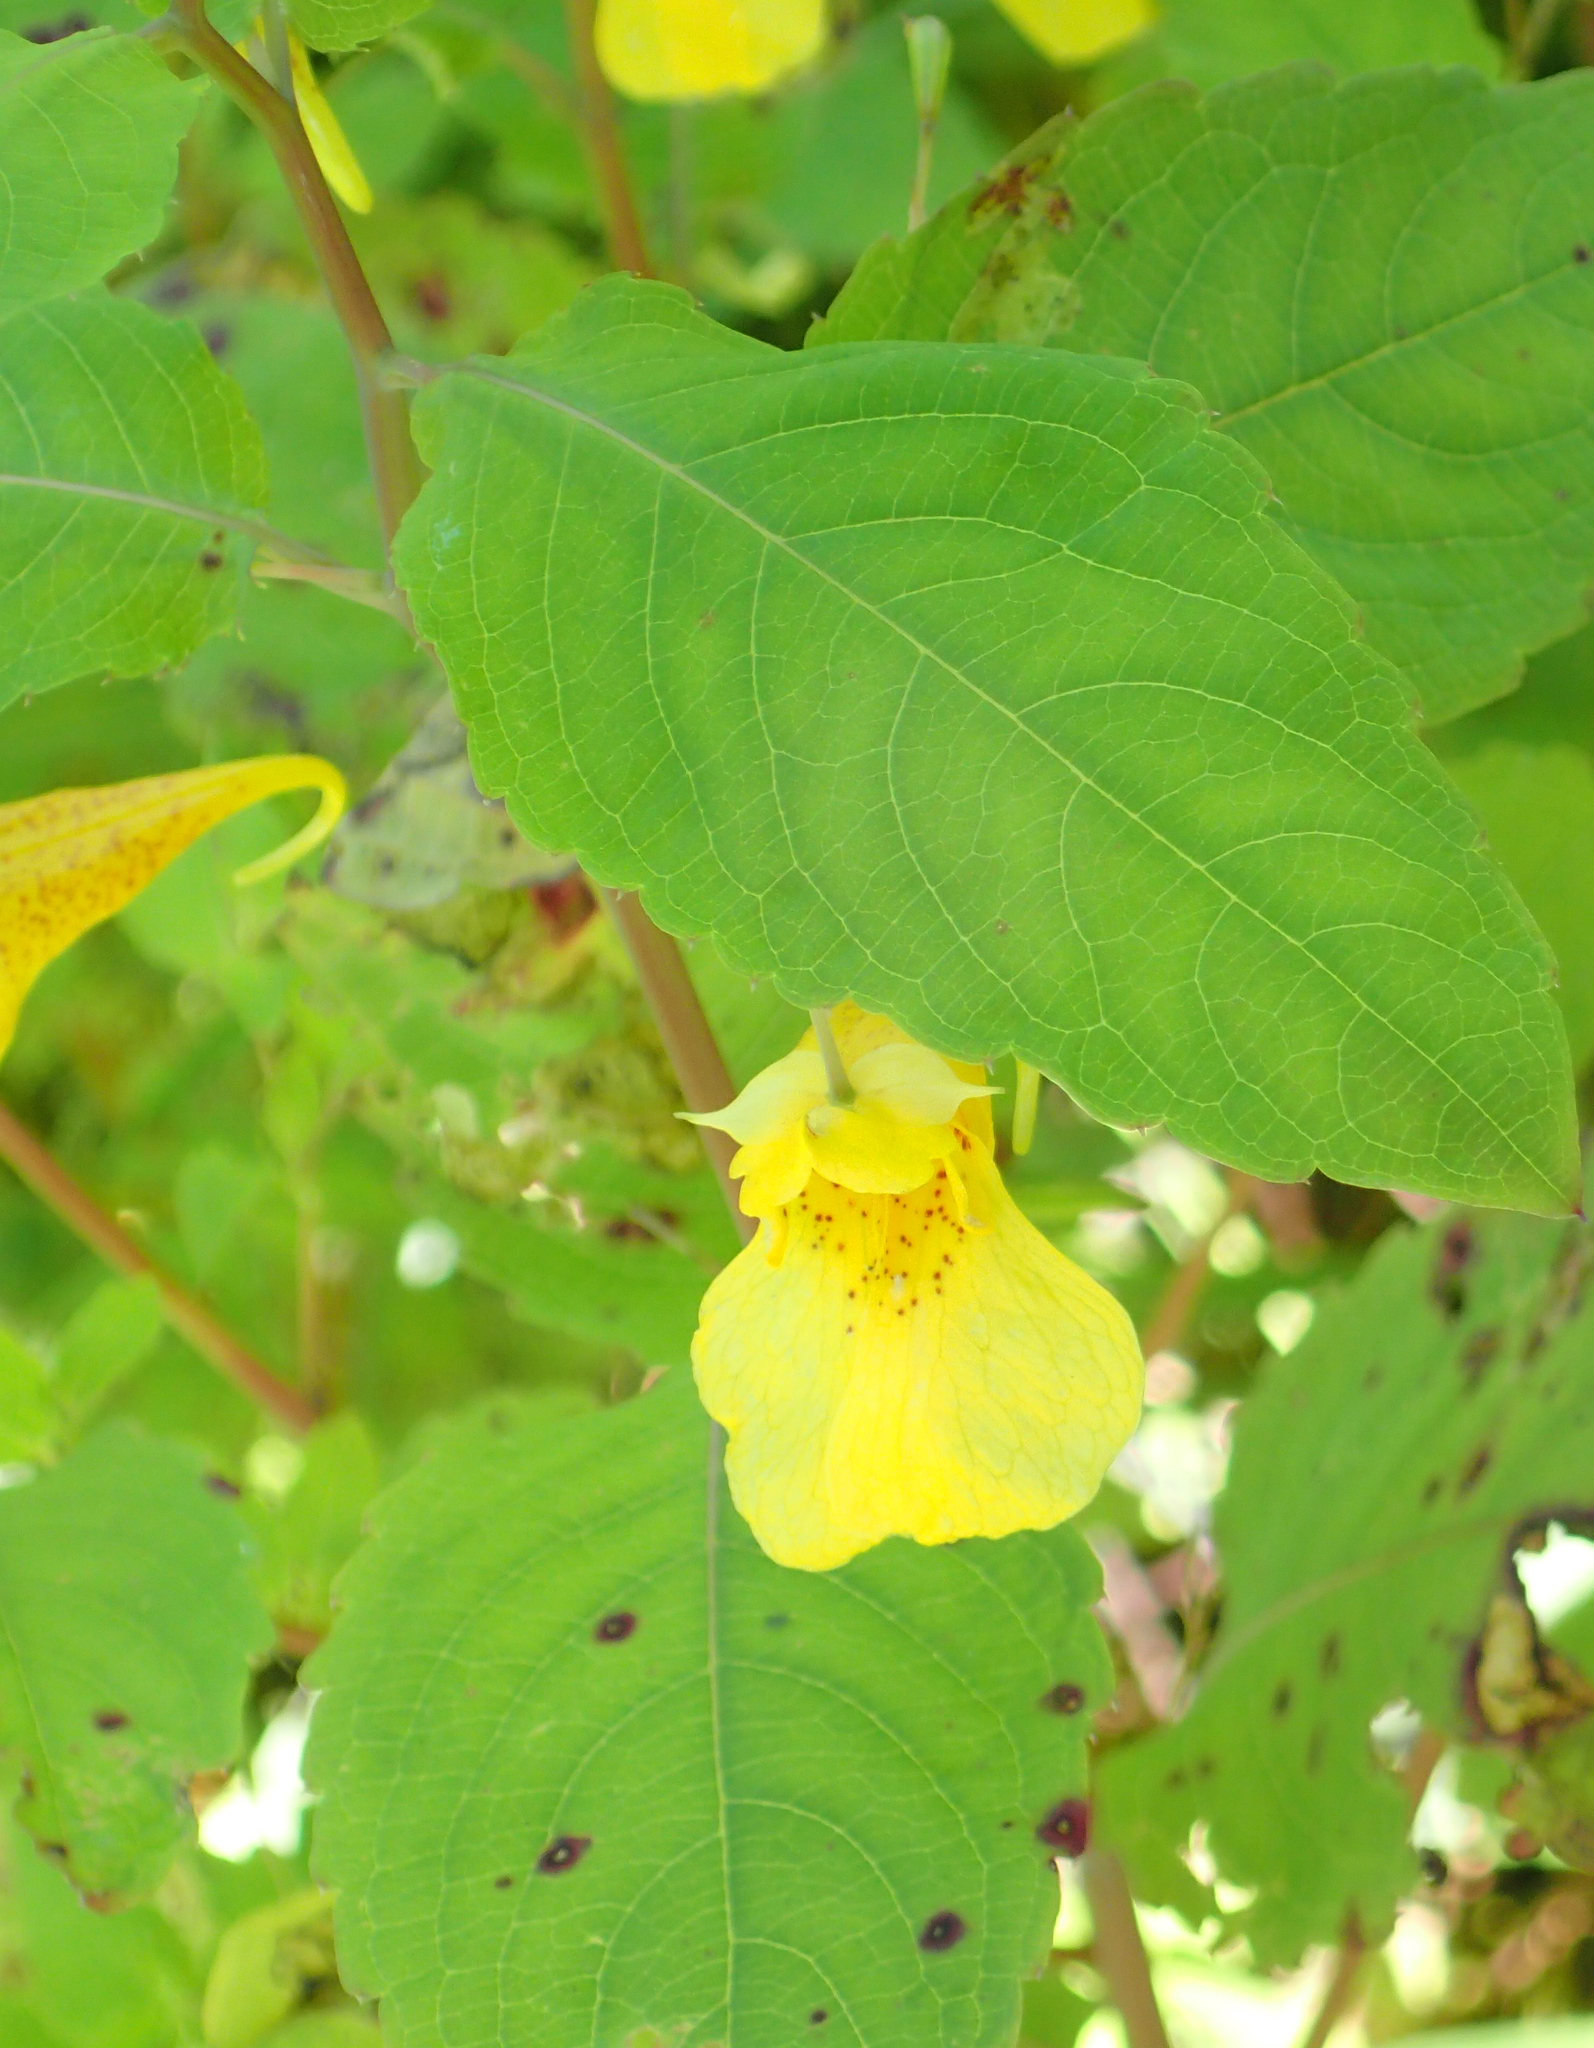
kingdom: Plantae
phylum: Tracheophyta
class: Magnoliopsida
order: Ericales
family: Balsaminaceae
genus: Impatiens
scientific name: Impatiens noli-tangere
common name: Touch-me-not balsam
